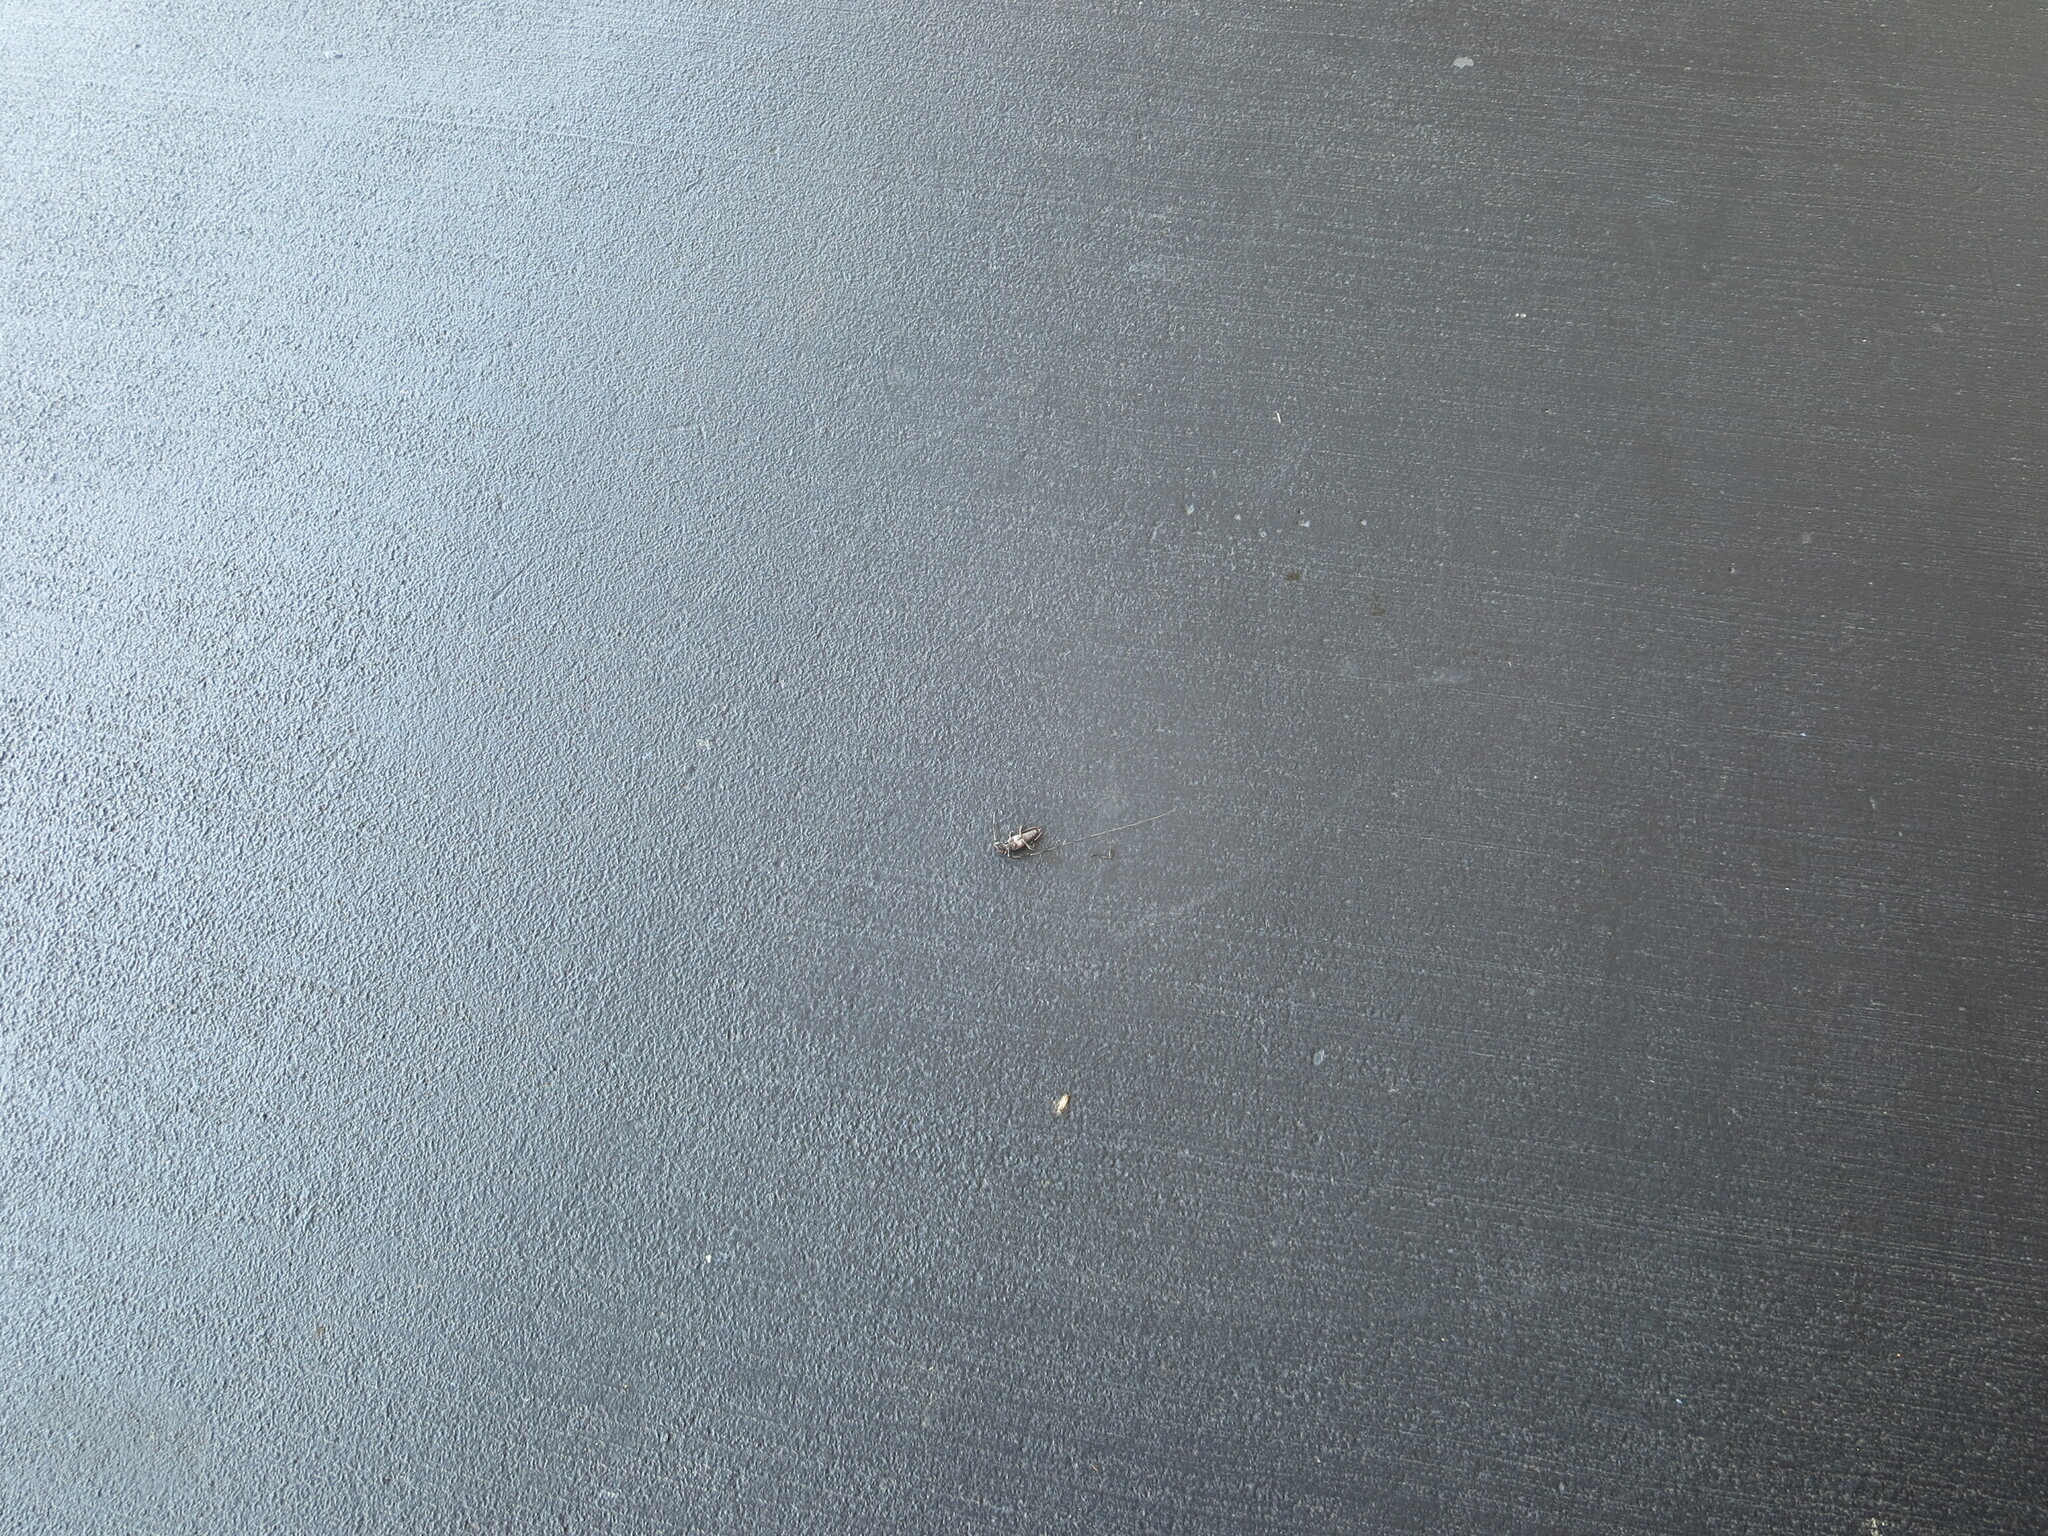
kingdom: Animalia
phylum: Arthropoda
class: Insecta
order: Coleoptera
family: Cerambycidae
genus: Acanthocinus
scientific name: Acanthocinus nodosus
